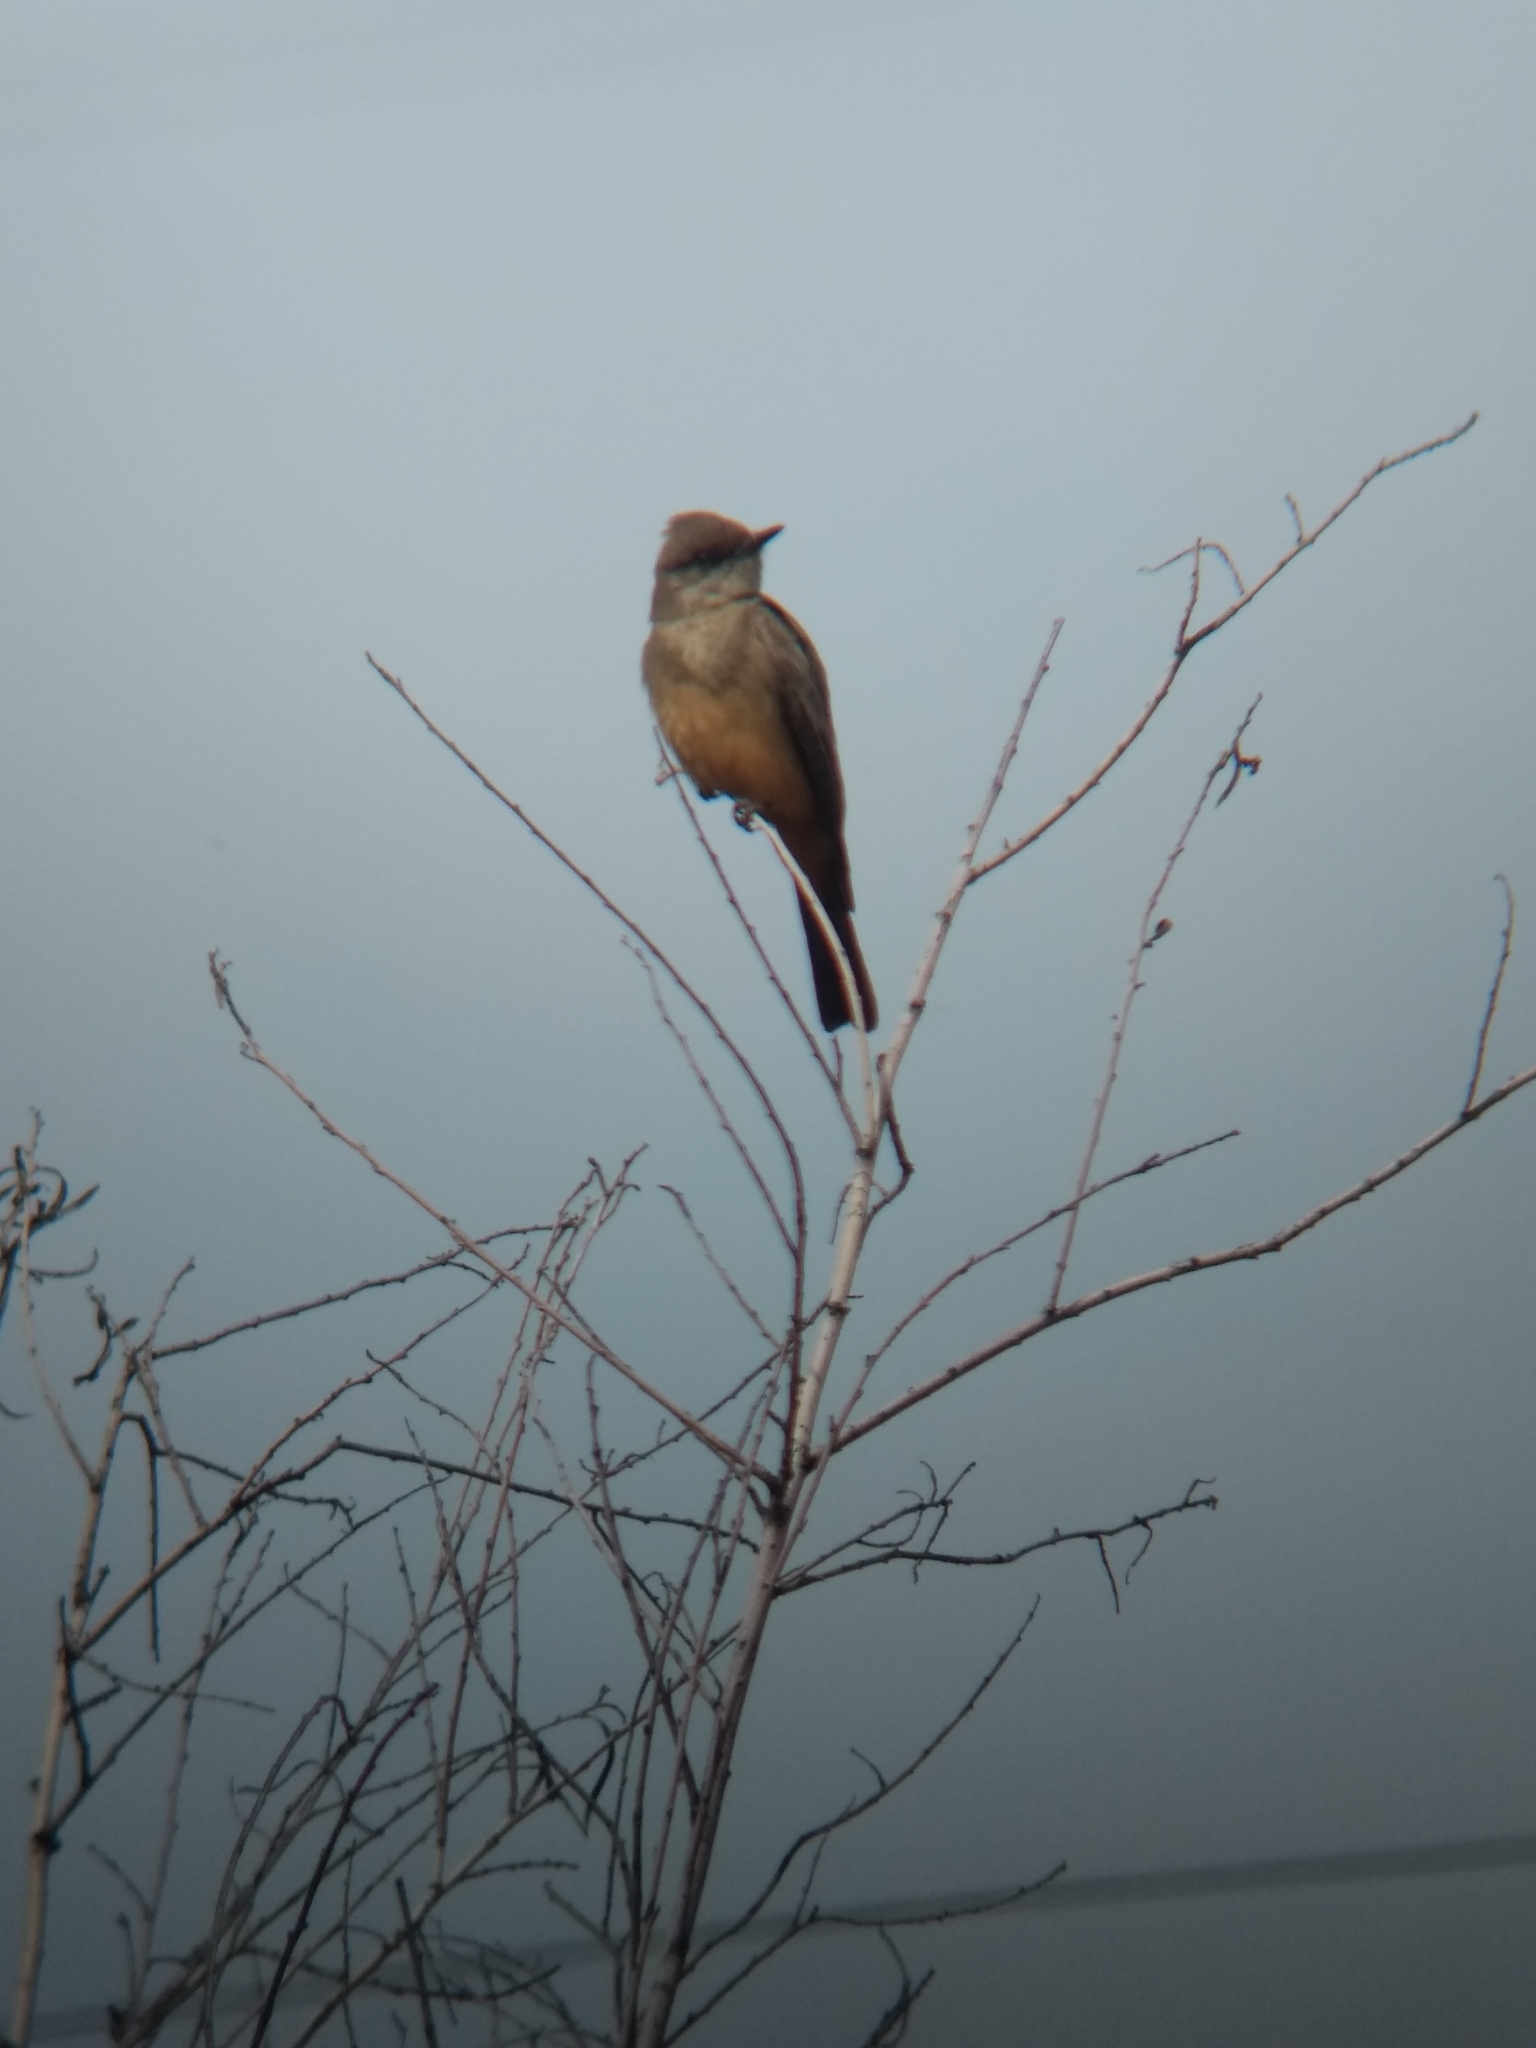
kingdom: Animalia
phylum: Chordata
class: Aves
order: Passeriformes
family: Tyrannidae
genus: Sayornis
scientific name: Sayornis saya
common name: Say's phoebe
